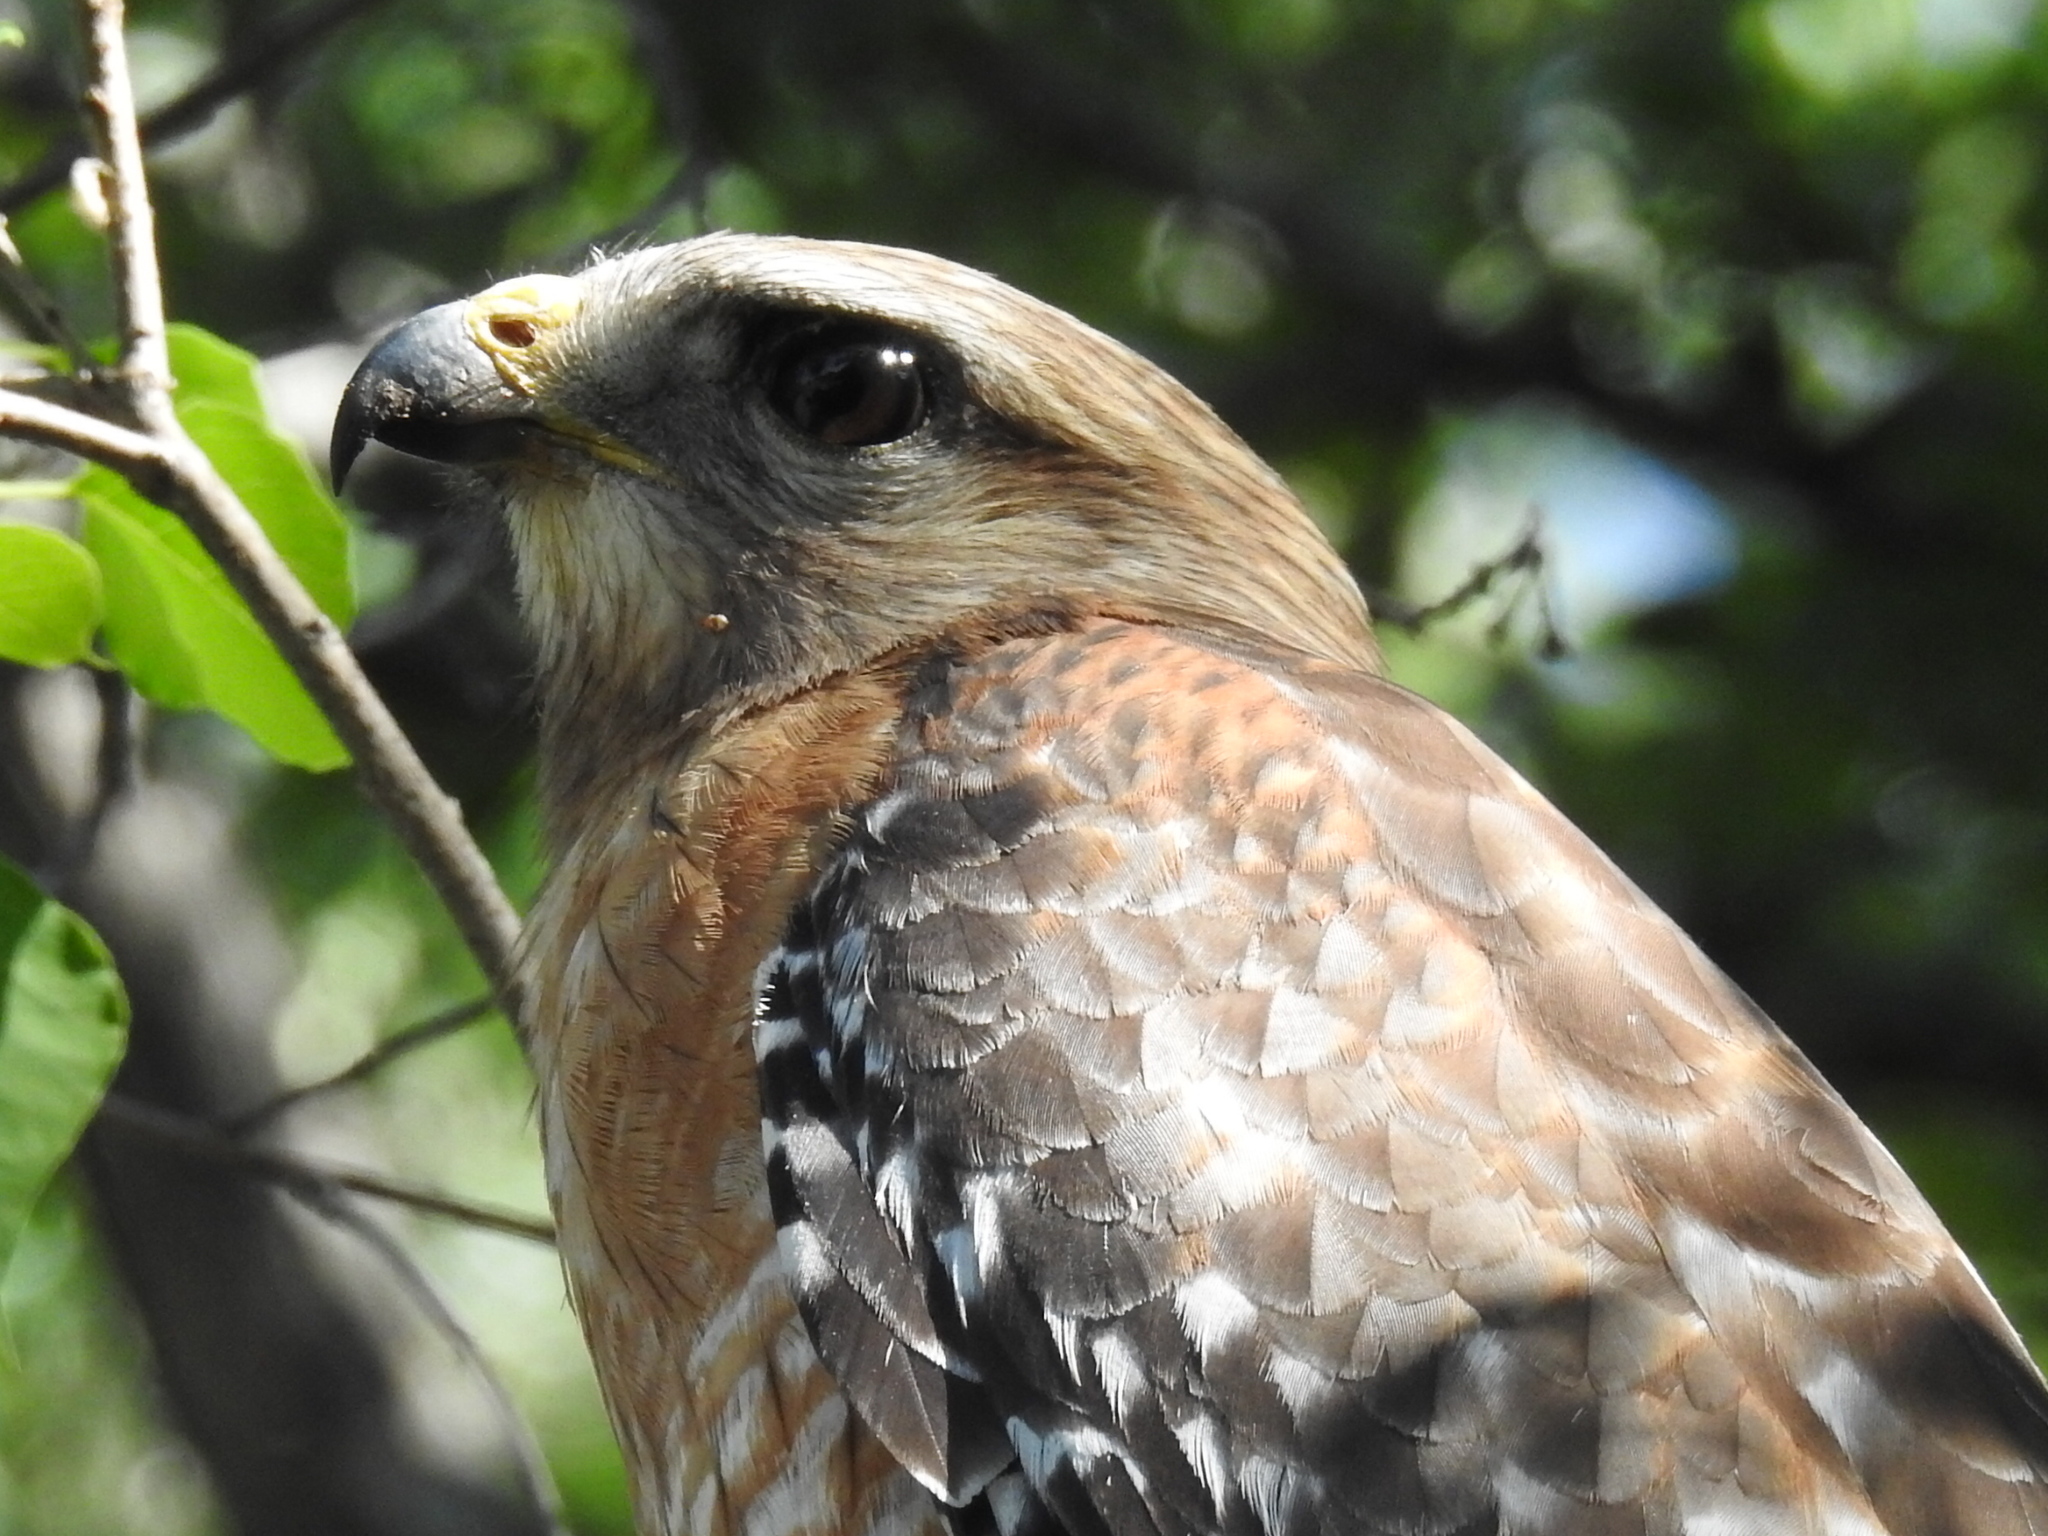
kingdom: Animalia
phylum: Chordata
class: Aves
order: Accipitriformes
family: Accipitridae
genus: Buteo
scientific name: Buteo lineatus
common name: Red-shouldered hawk
